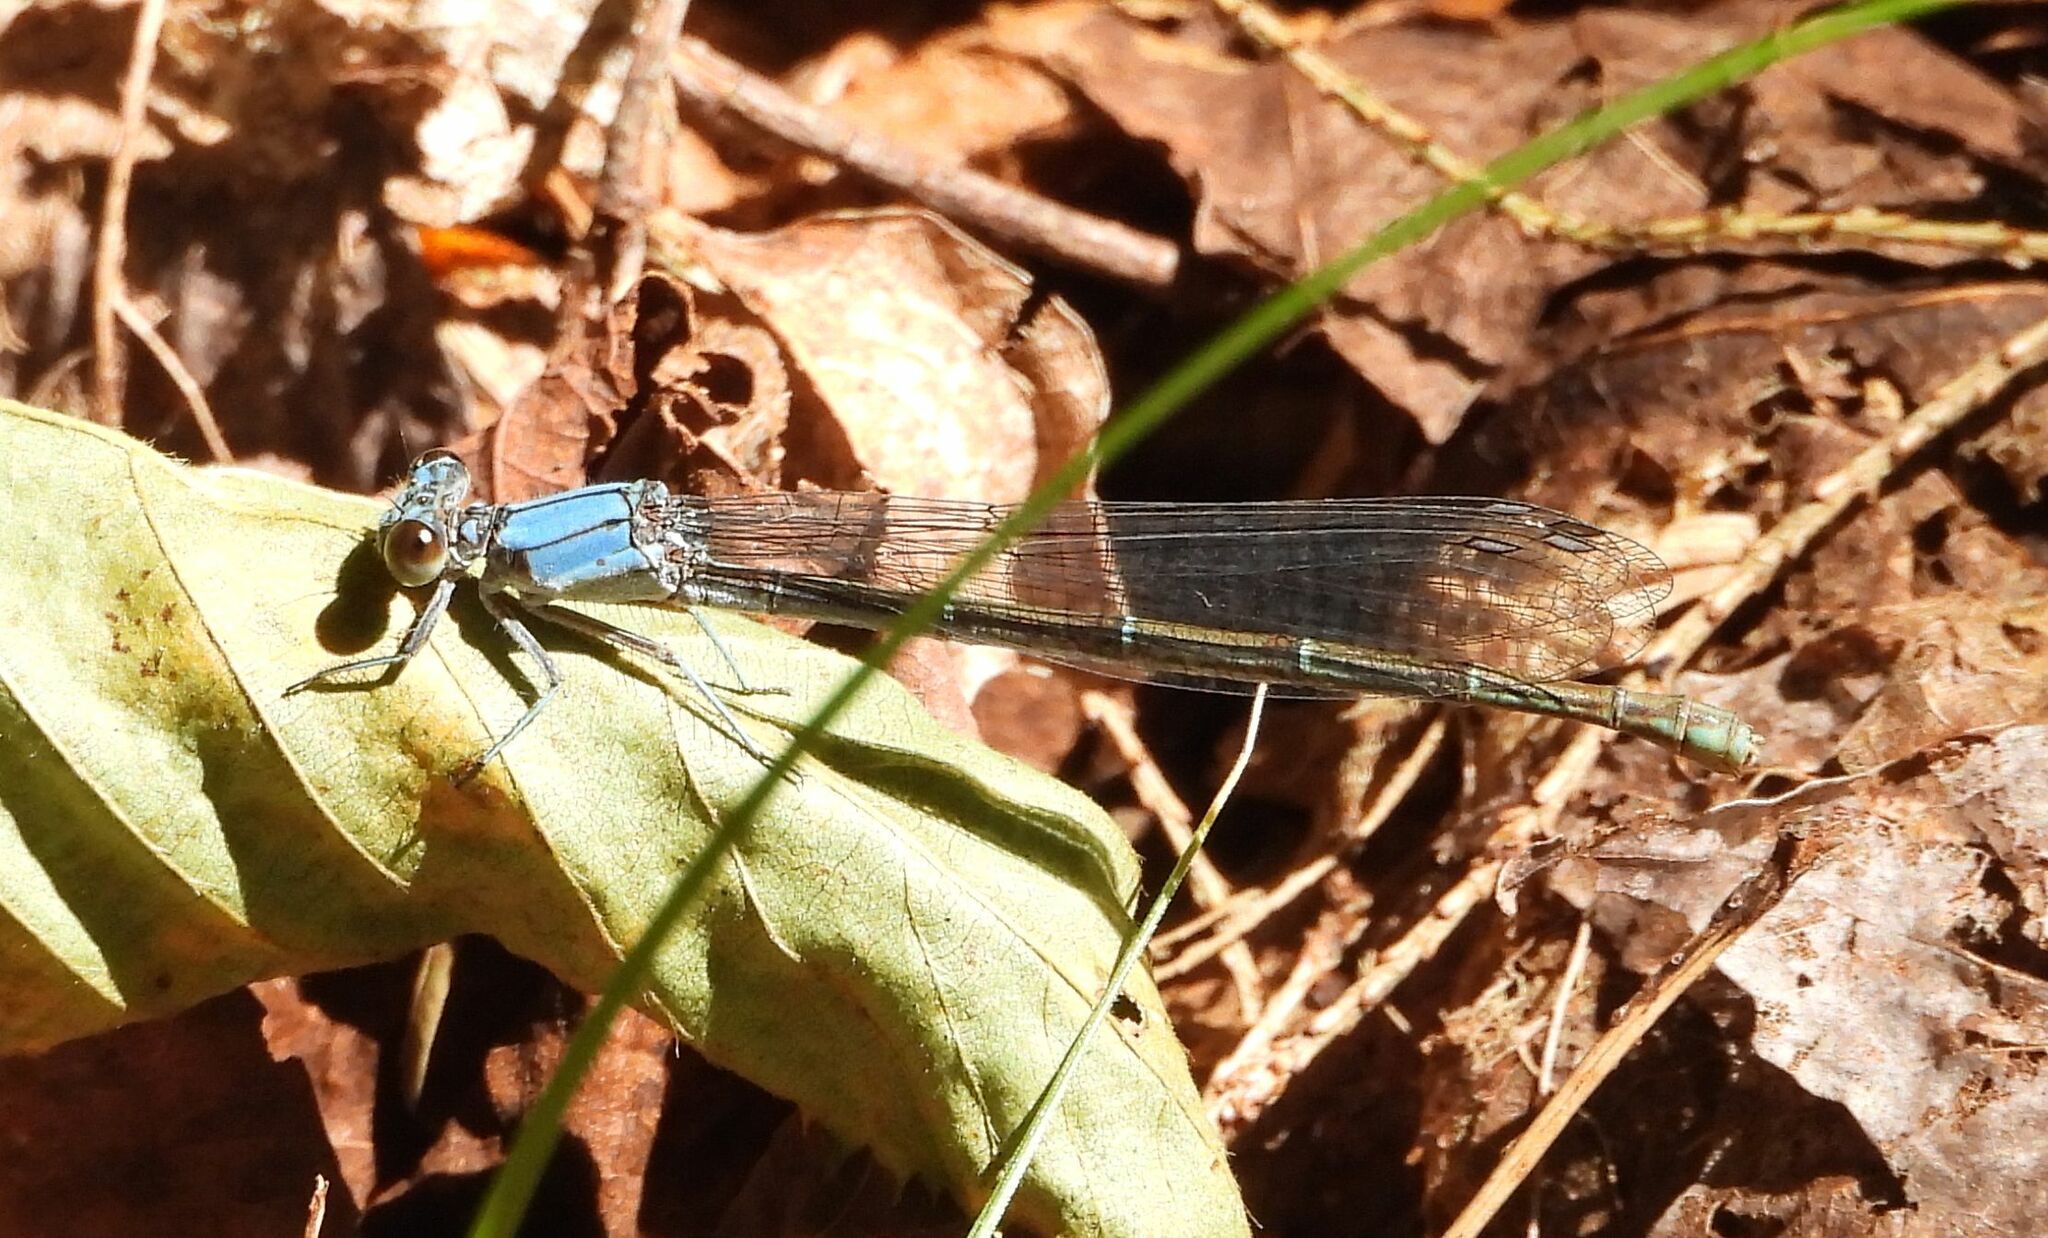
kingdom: Animalia
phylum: Arthropoda
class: Insecta
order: Odonata
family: Coenagrionidae
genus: Argia
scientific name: Argia moesta
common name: Powdered dancer
